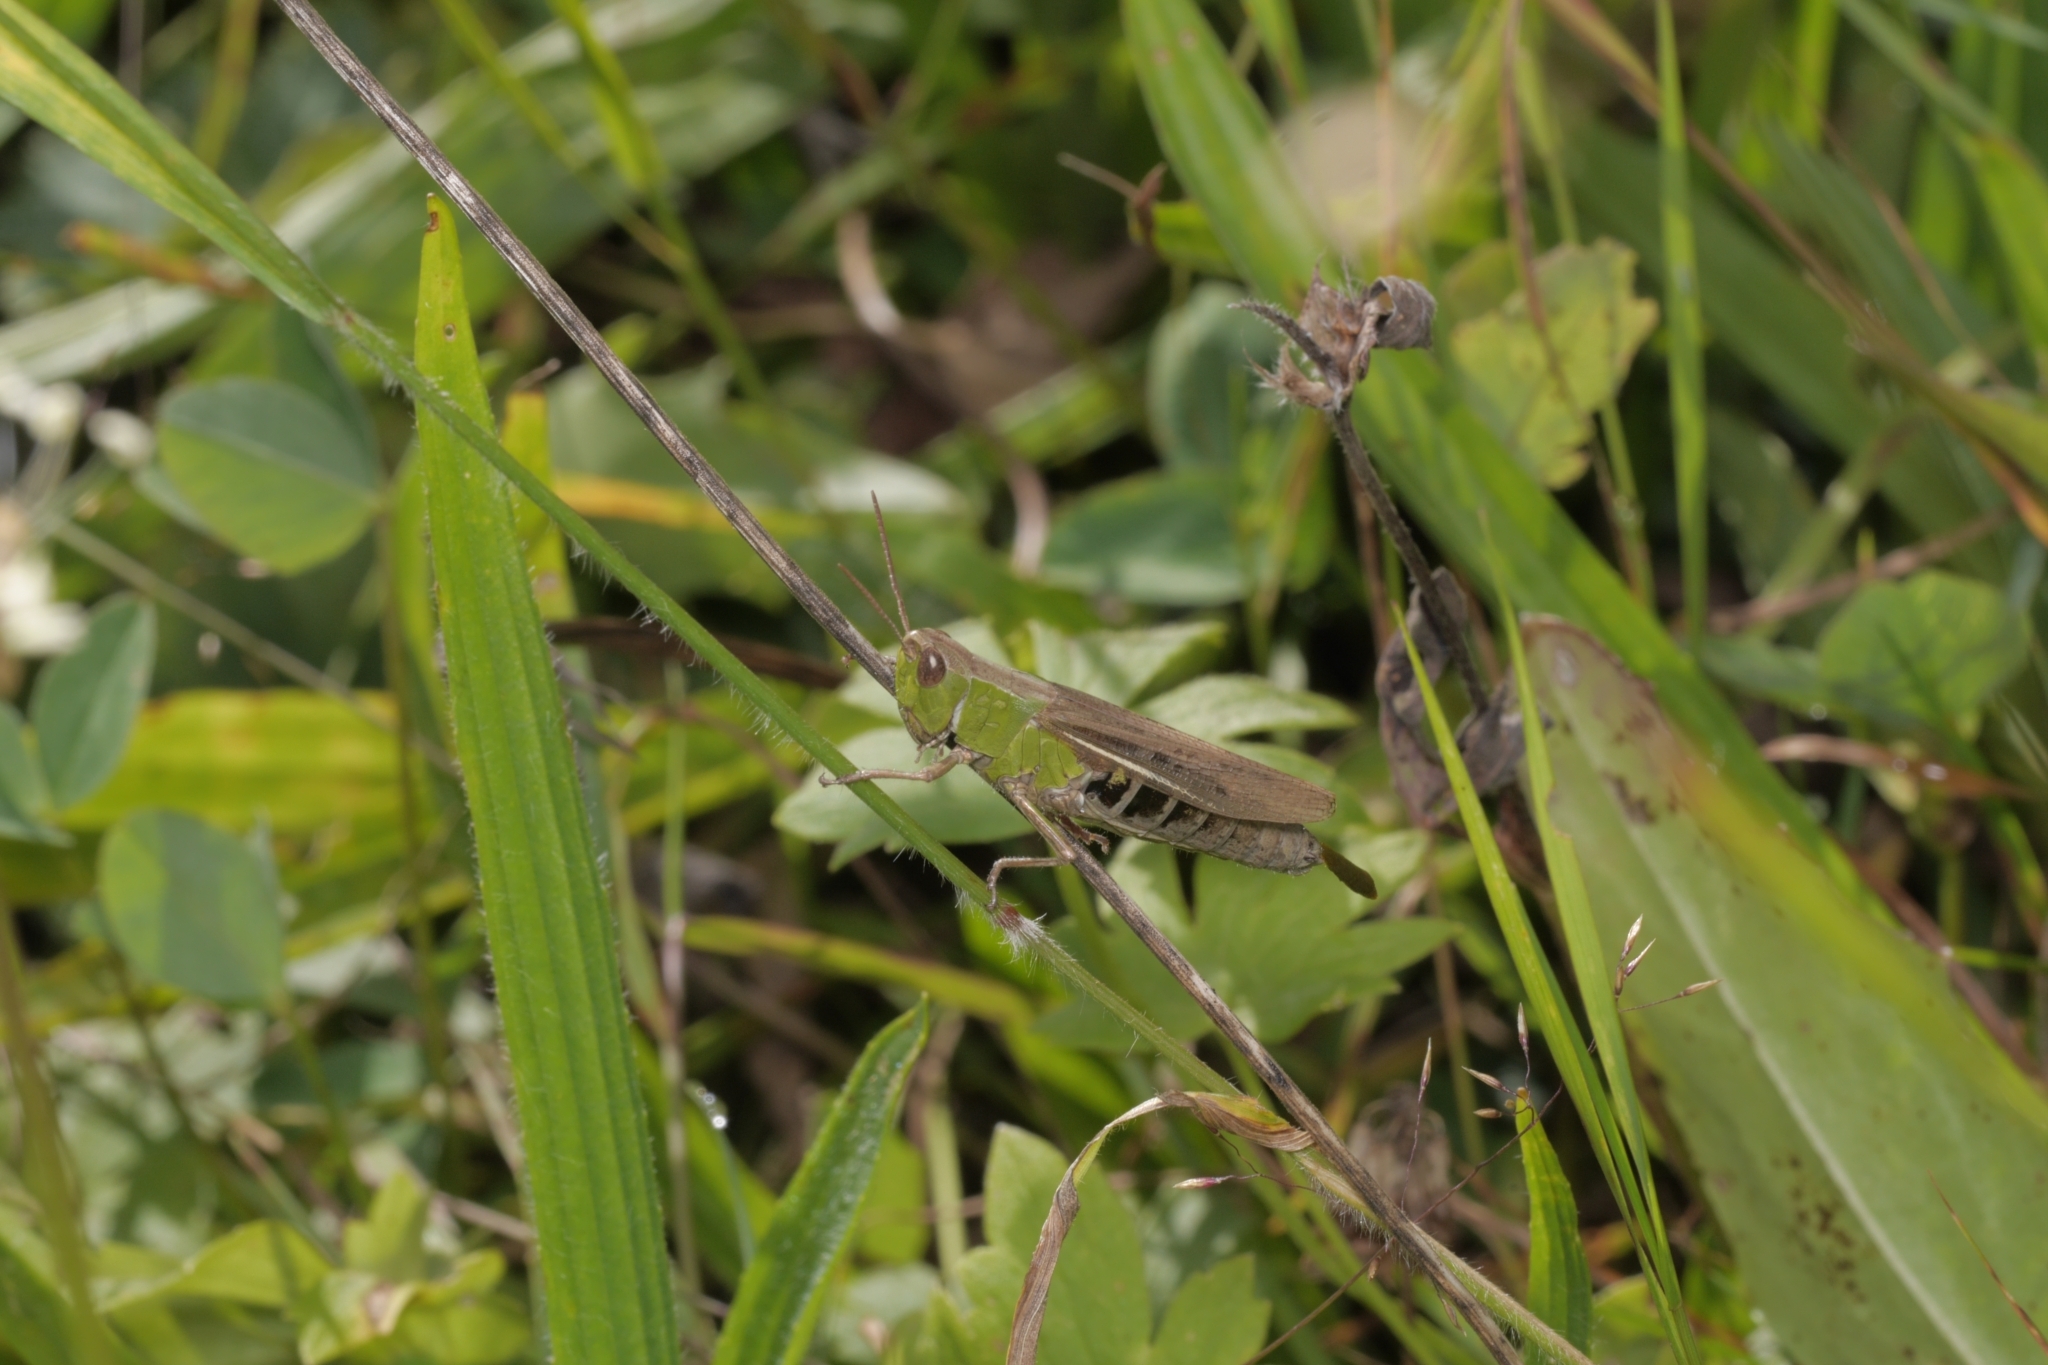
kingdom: Animalia
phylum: Arthropoda
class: Insecta
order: Orthoptera
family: Acrididae
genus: Chorthippus
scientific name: Chorthippus dorsatus
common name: Steppe grasshopper
